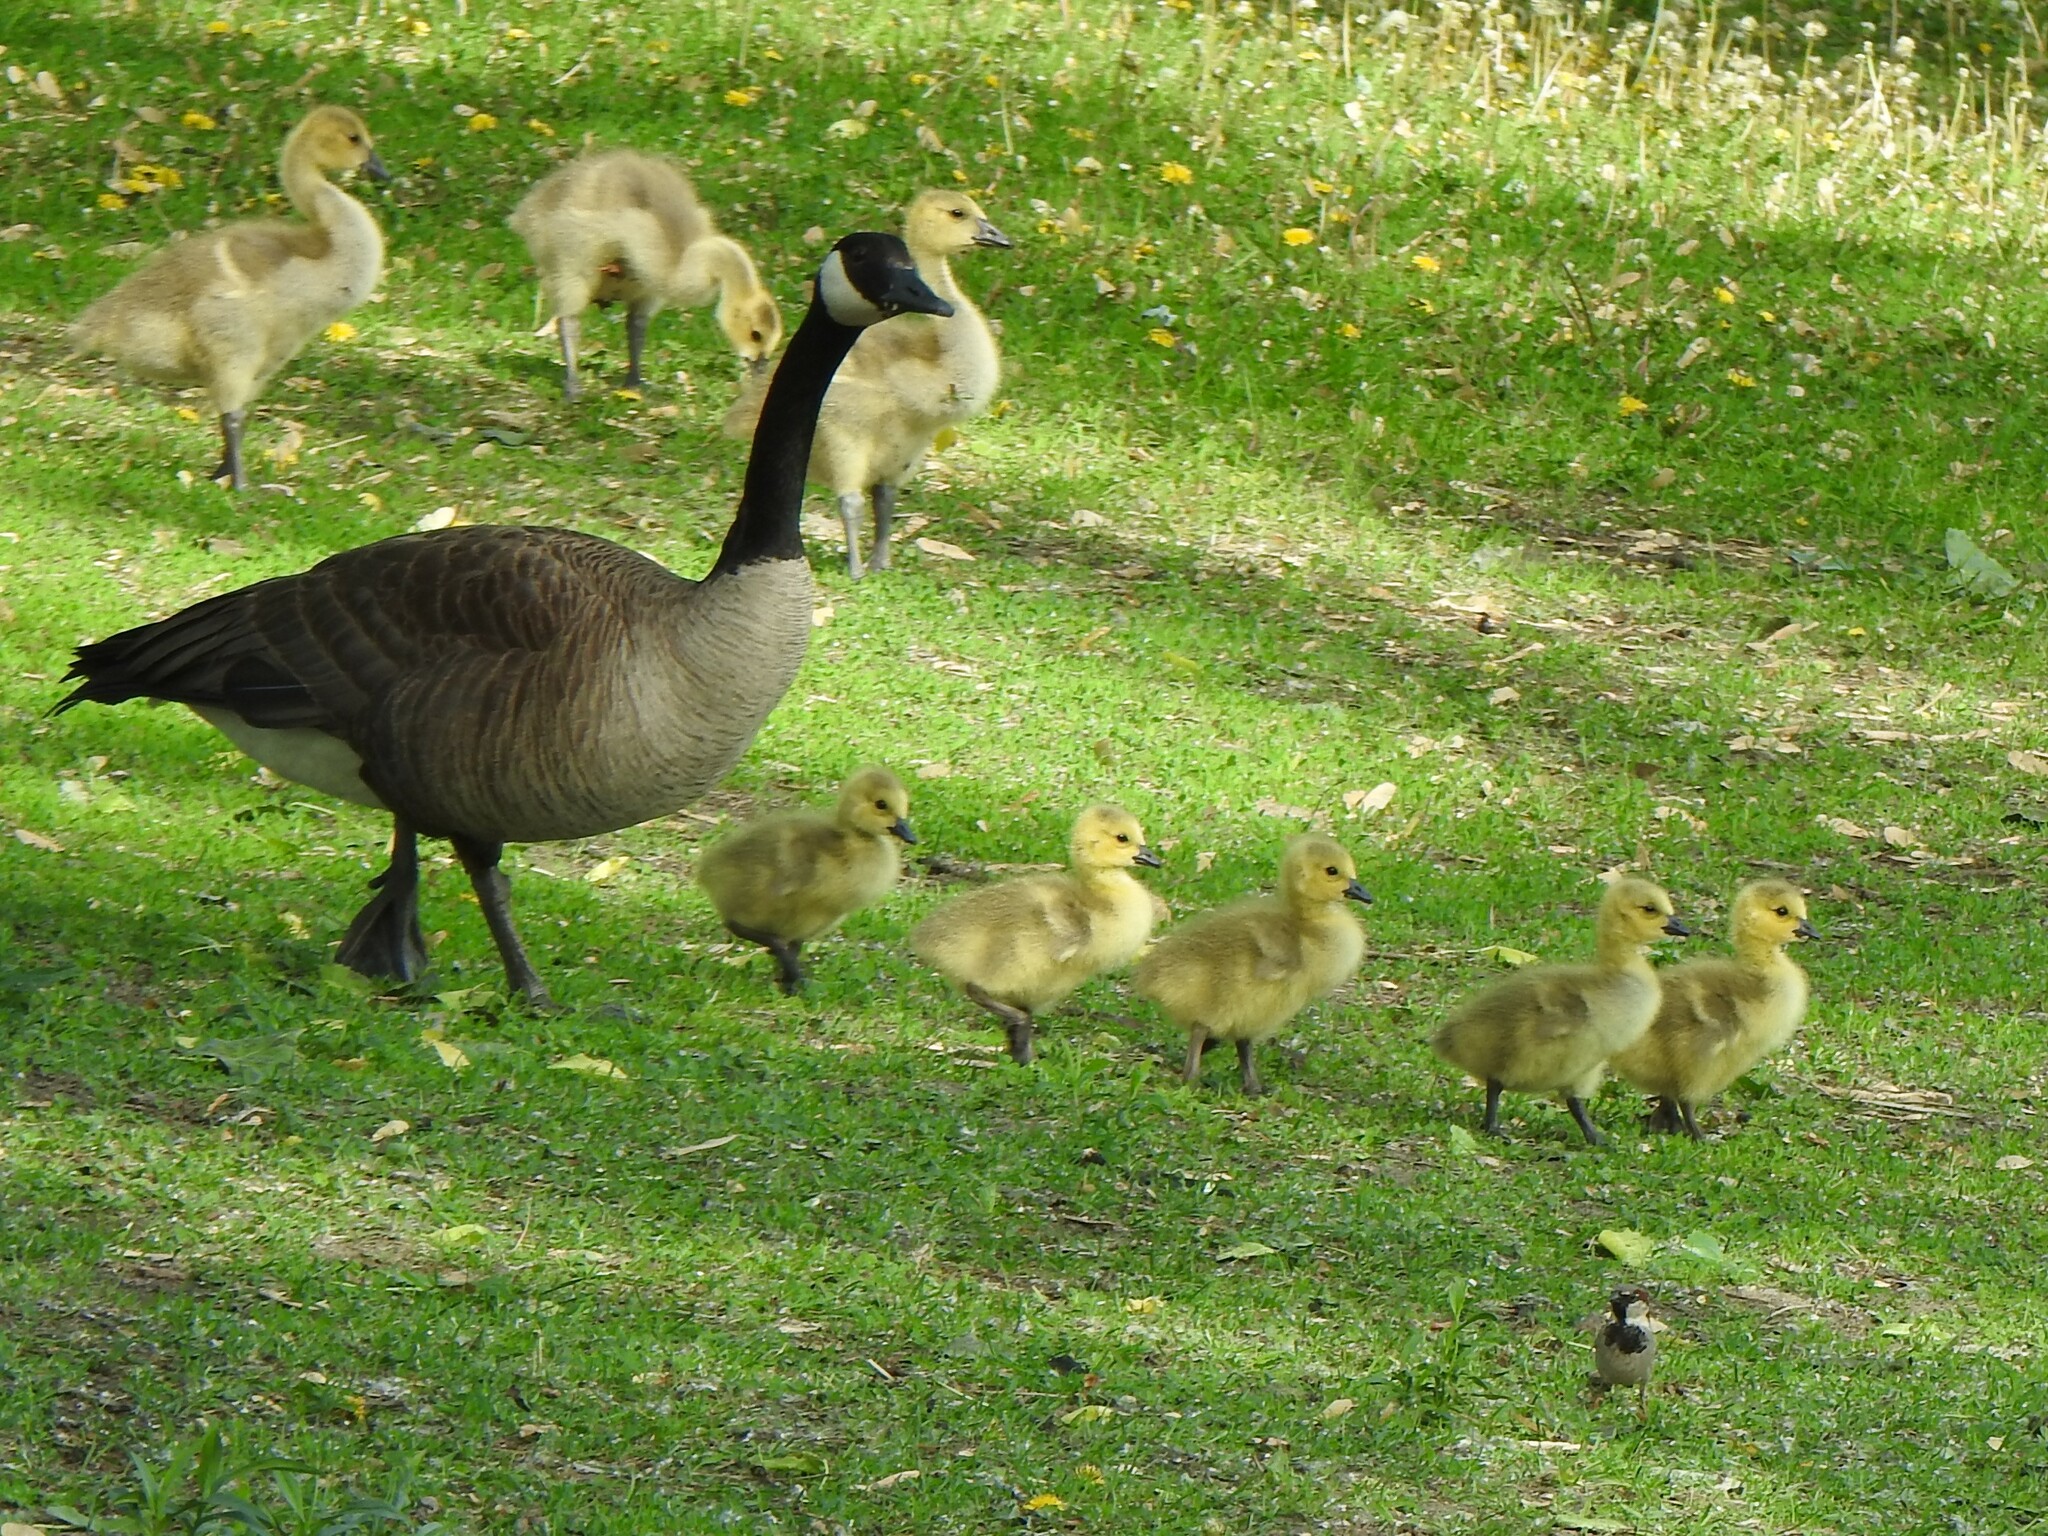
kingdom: Animalia
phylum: Chordata
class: Aves
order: Anseriformes
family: Anatidae
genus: Branta
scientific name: Branta canadensis
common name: Canada goose
